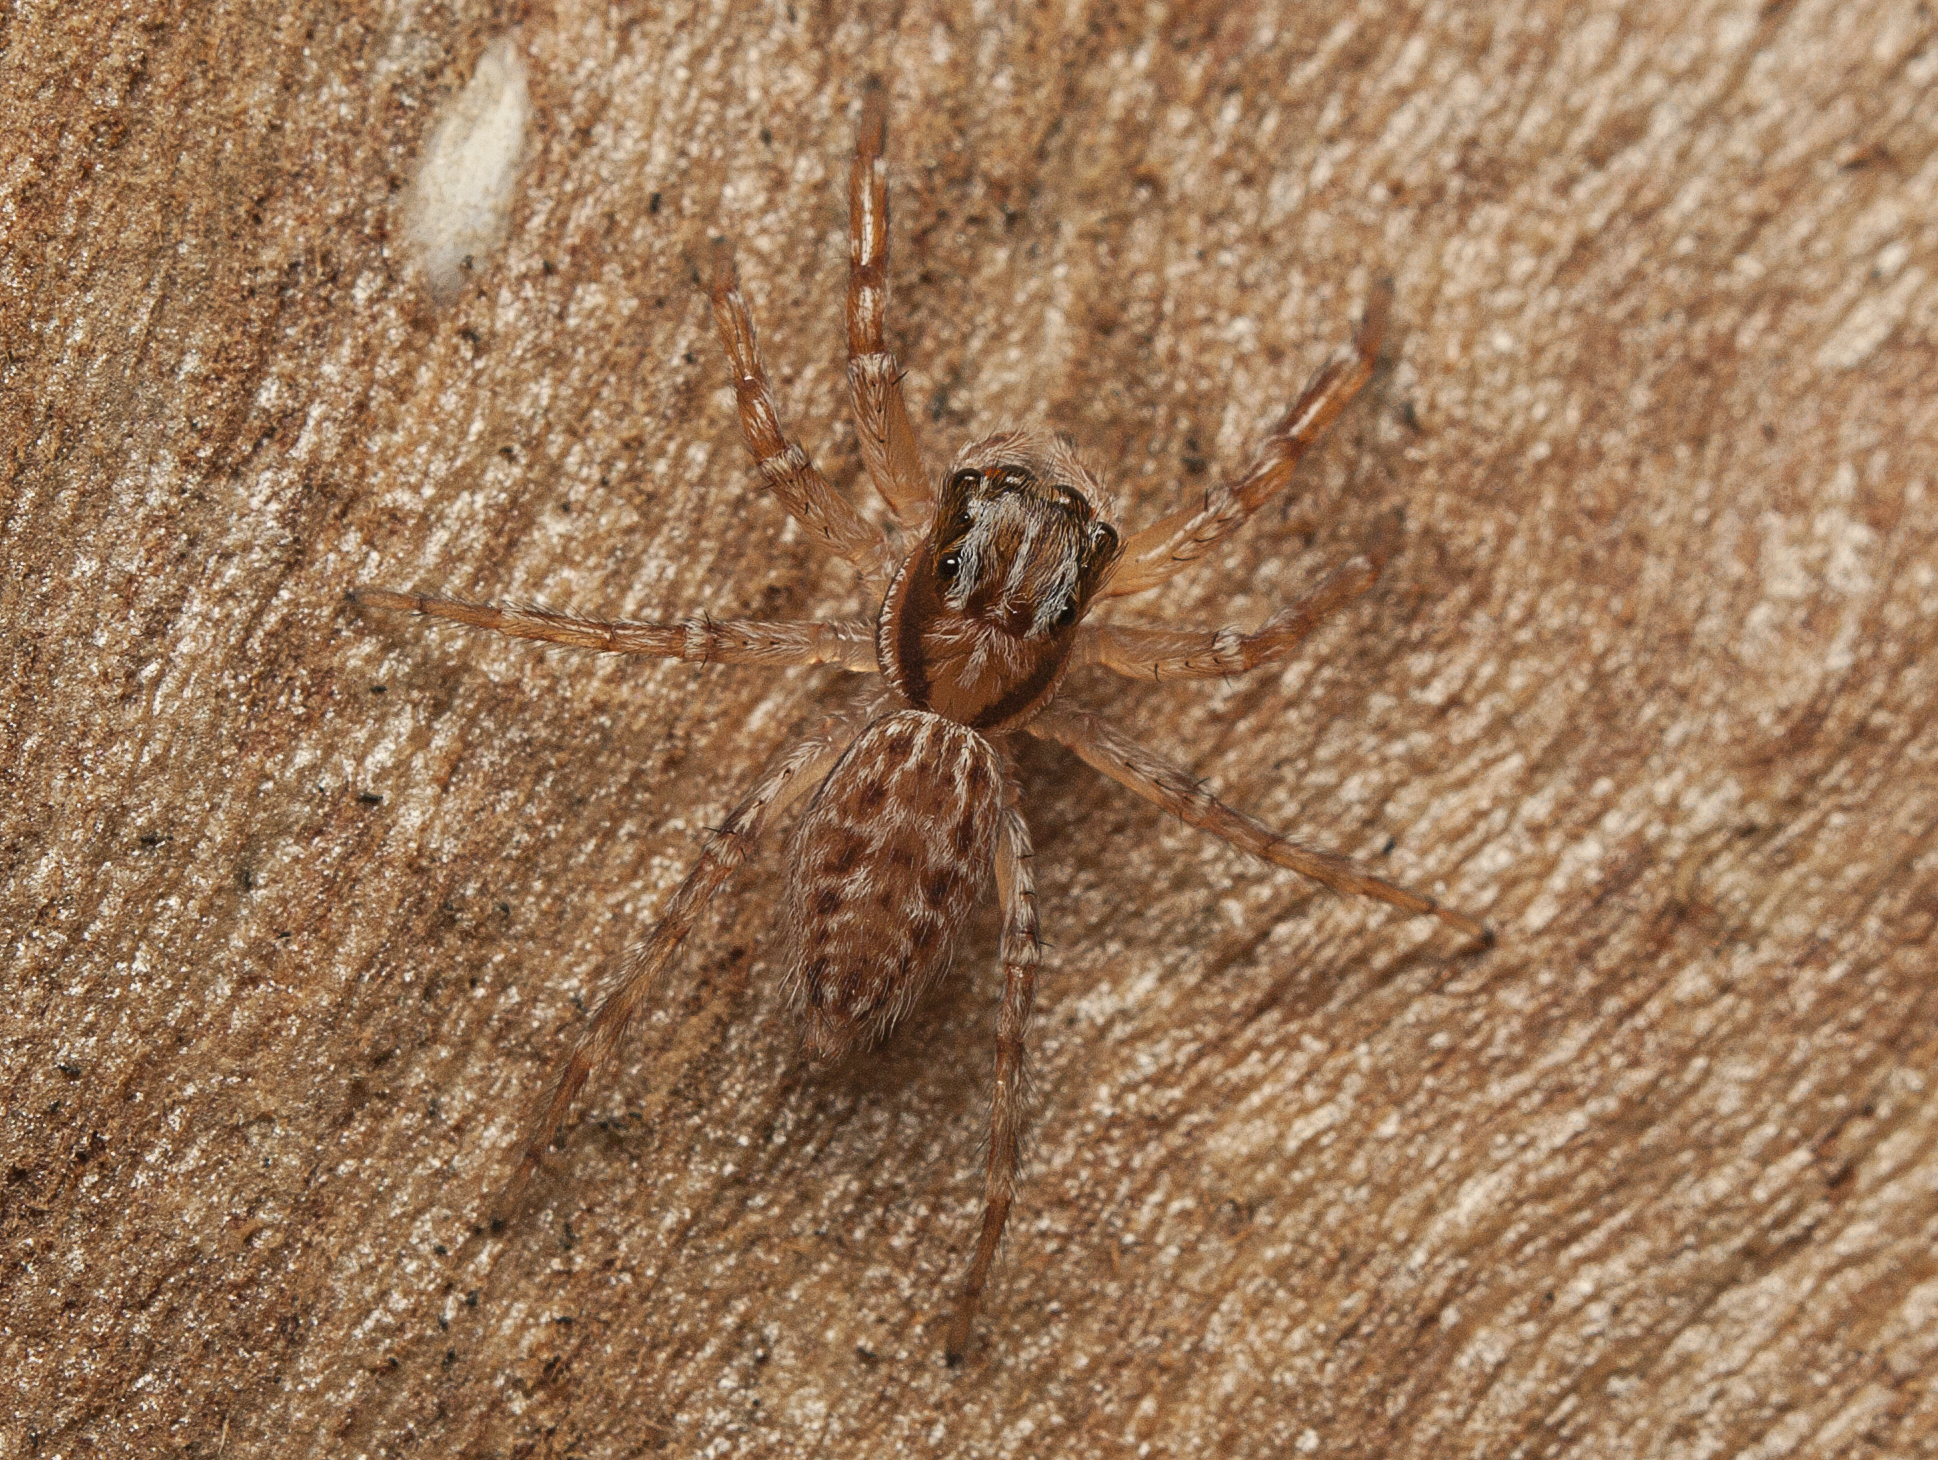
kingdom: Animalia
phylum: Arthropoda
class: Arachnida
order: Araneae
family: Salticidae
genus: Adoxotoma
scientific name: Adoxotoma nodosa
